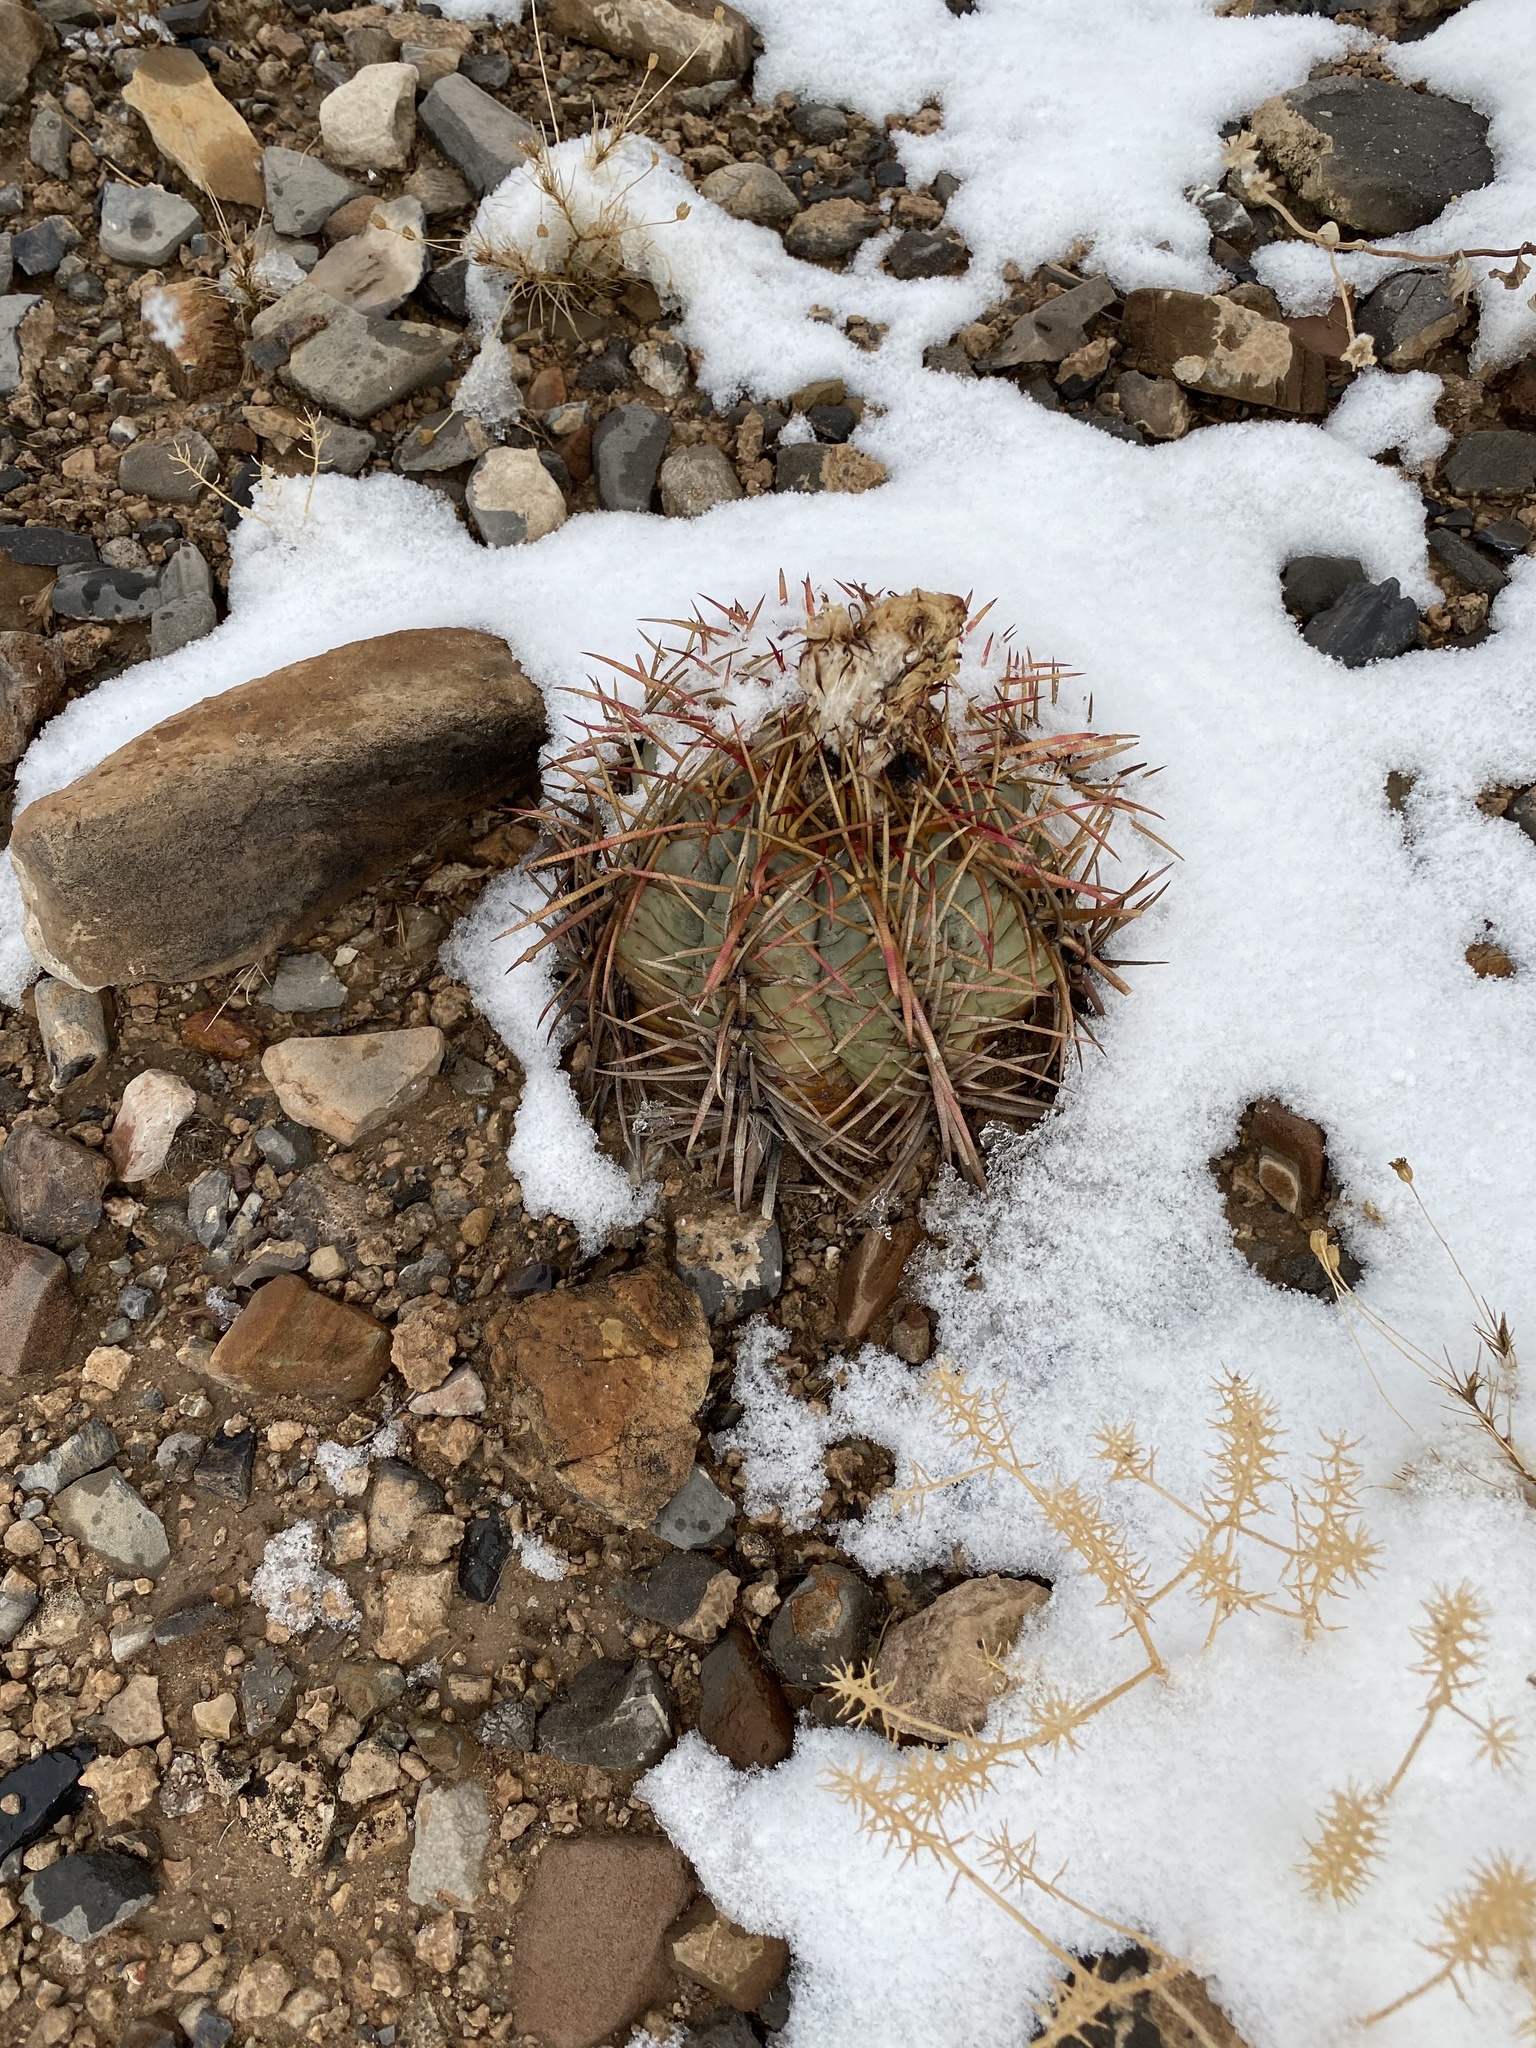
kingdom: Plantae
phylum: Tracheophyta
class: Magnoliopsida
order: Caryophyllales
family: Cactaceae
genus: Echinocactus
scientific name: Echinocactus horizonthalonius
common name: Devilshead
